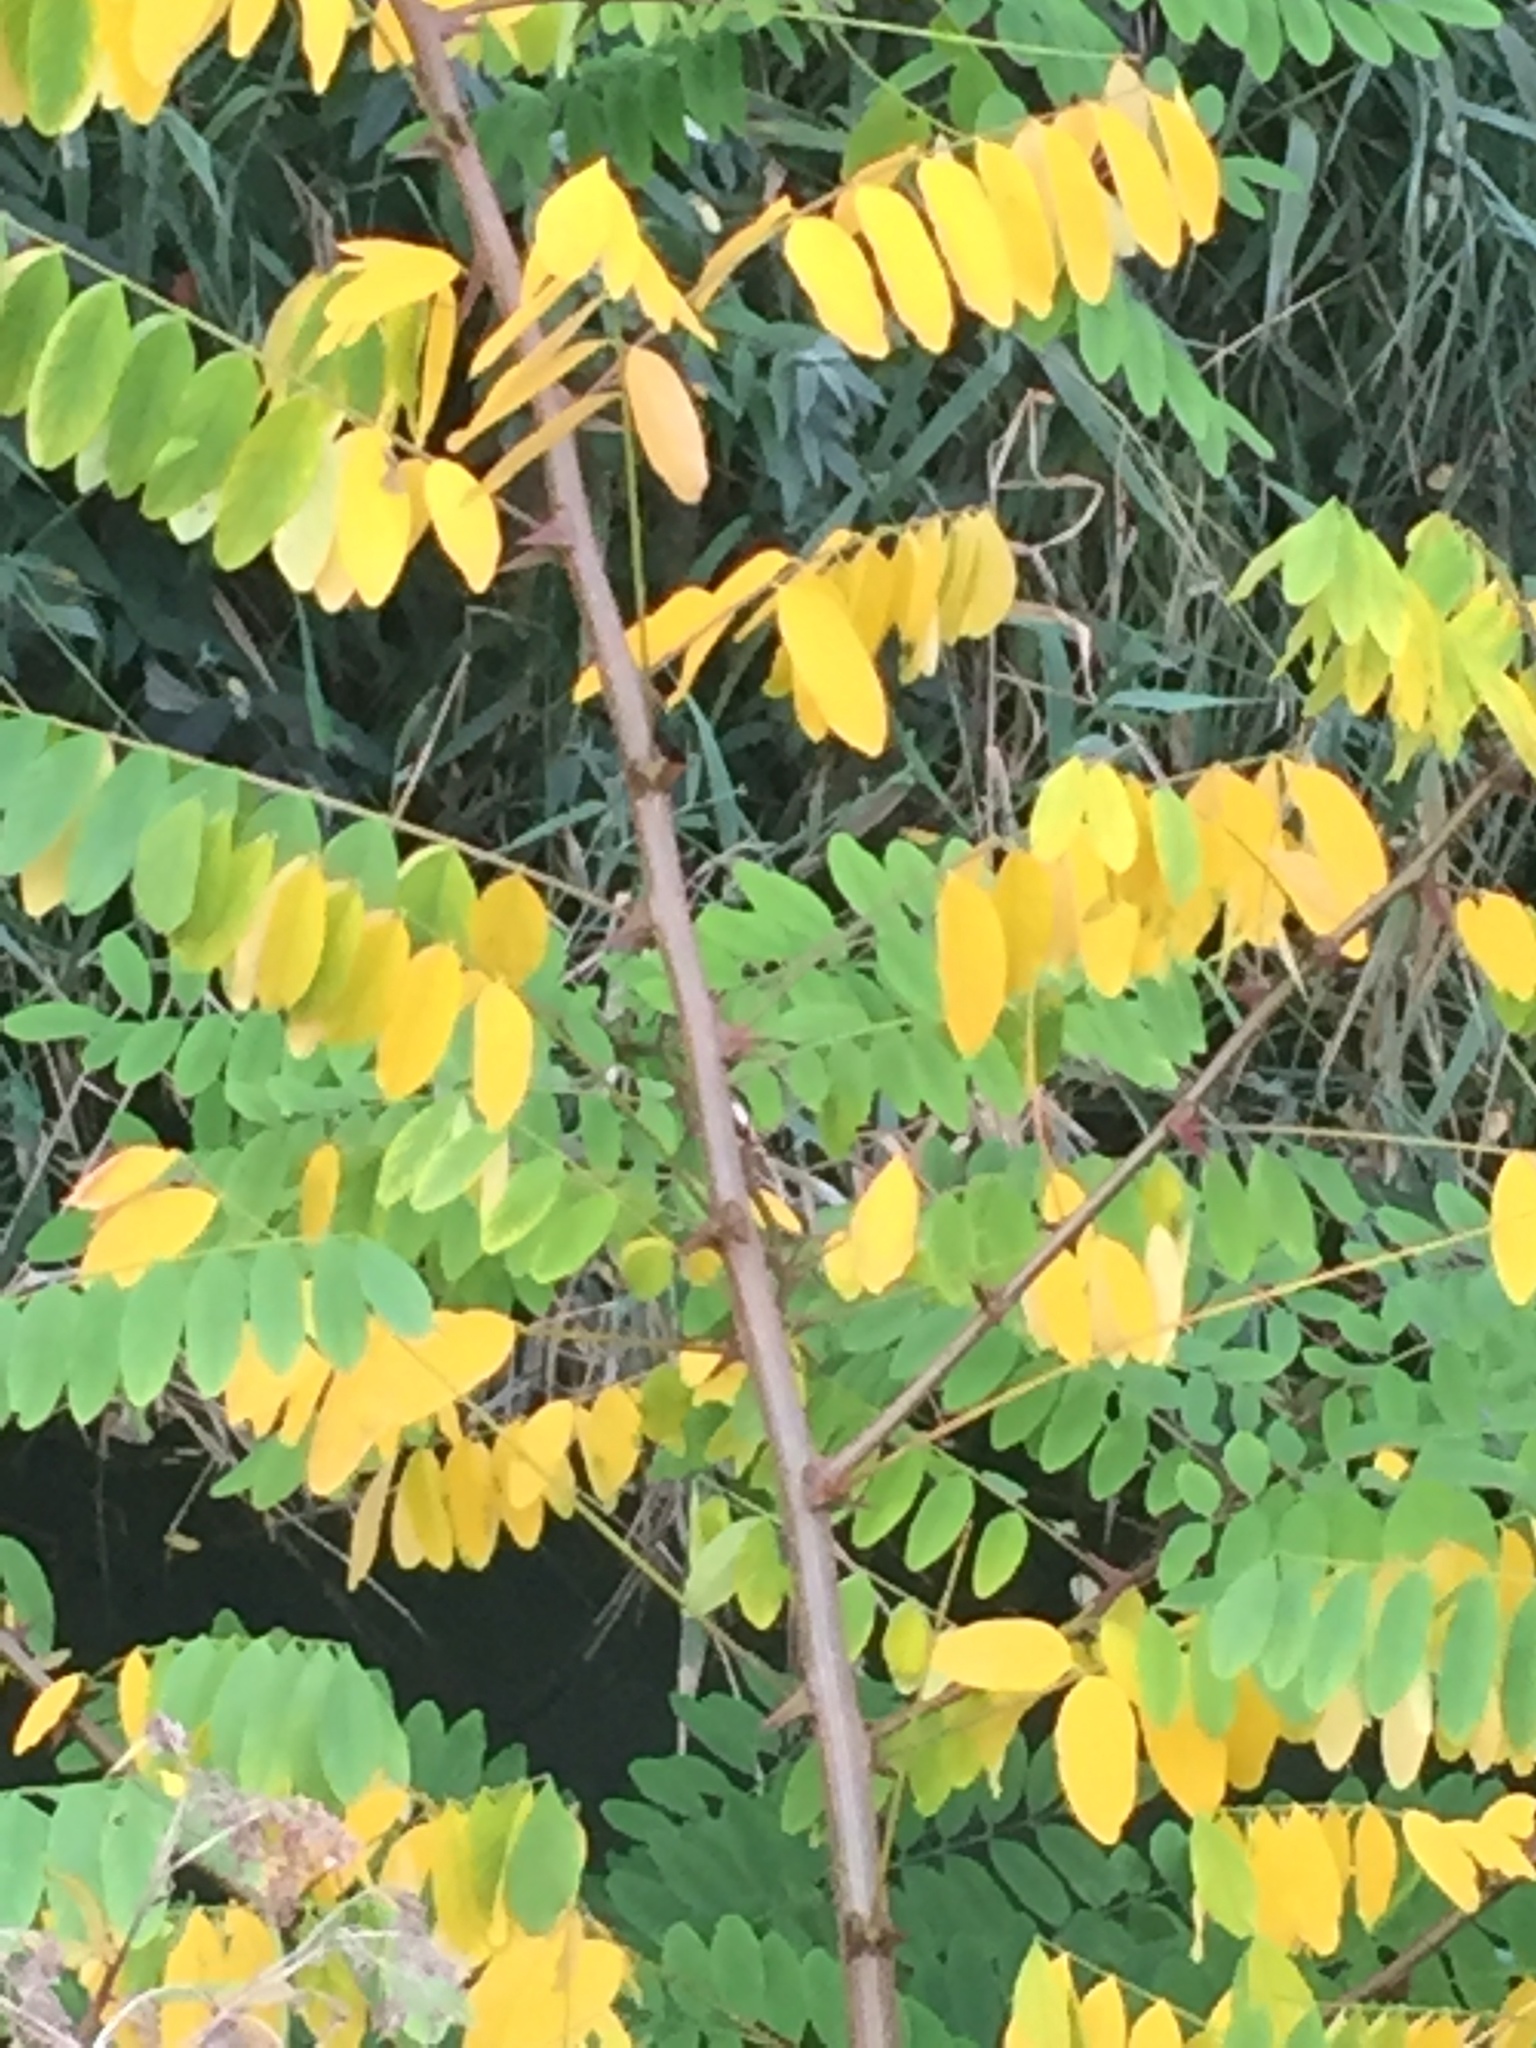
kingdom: Plantae
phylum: Tracheophyta
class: Magnoliopsida
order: Fabales
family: Fabaceae
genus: Robinia
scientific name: Robinia pseudoacacia
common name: Black locust
